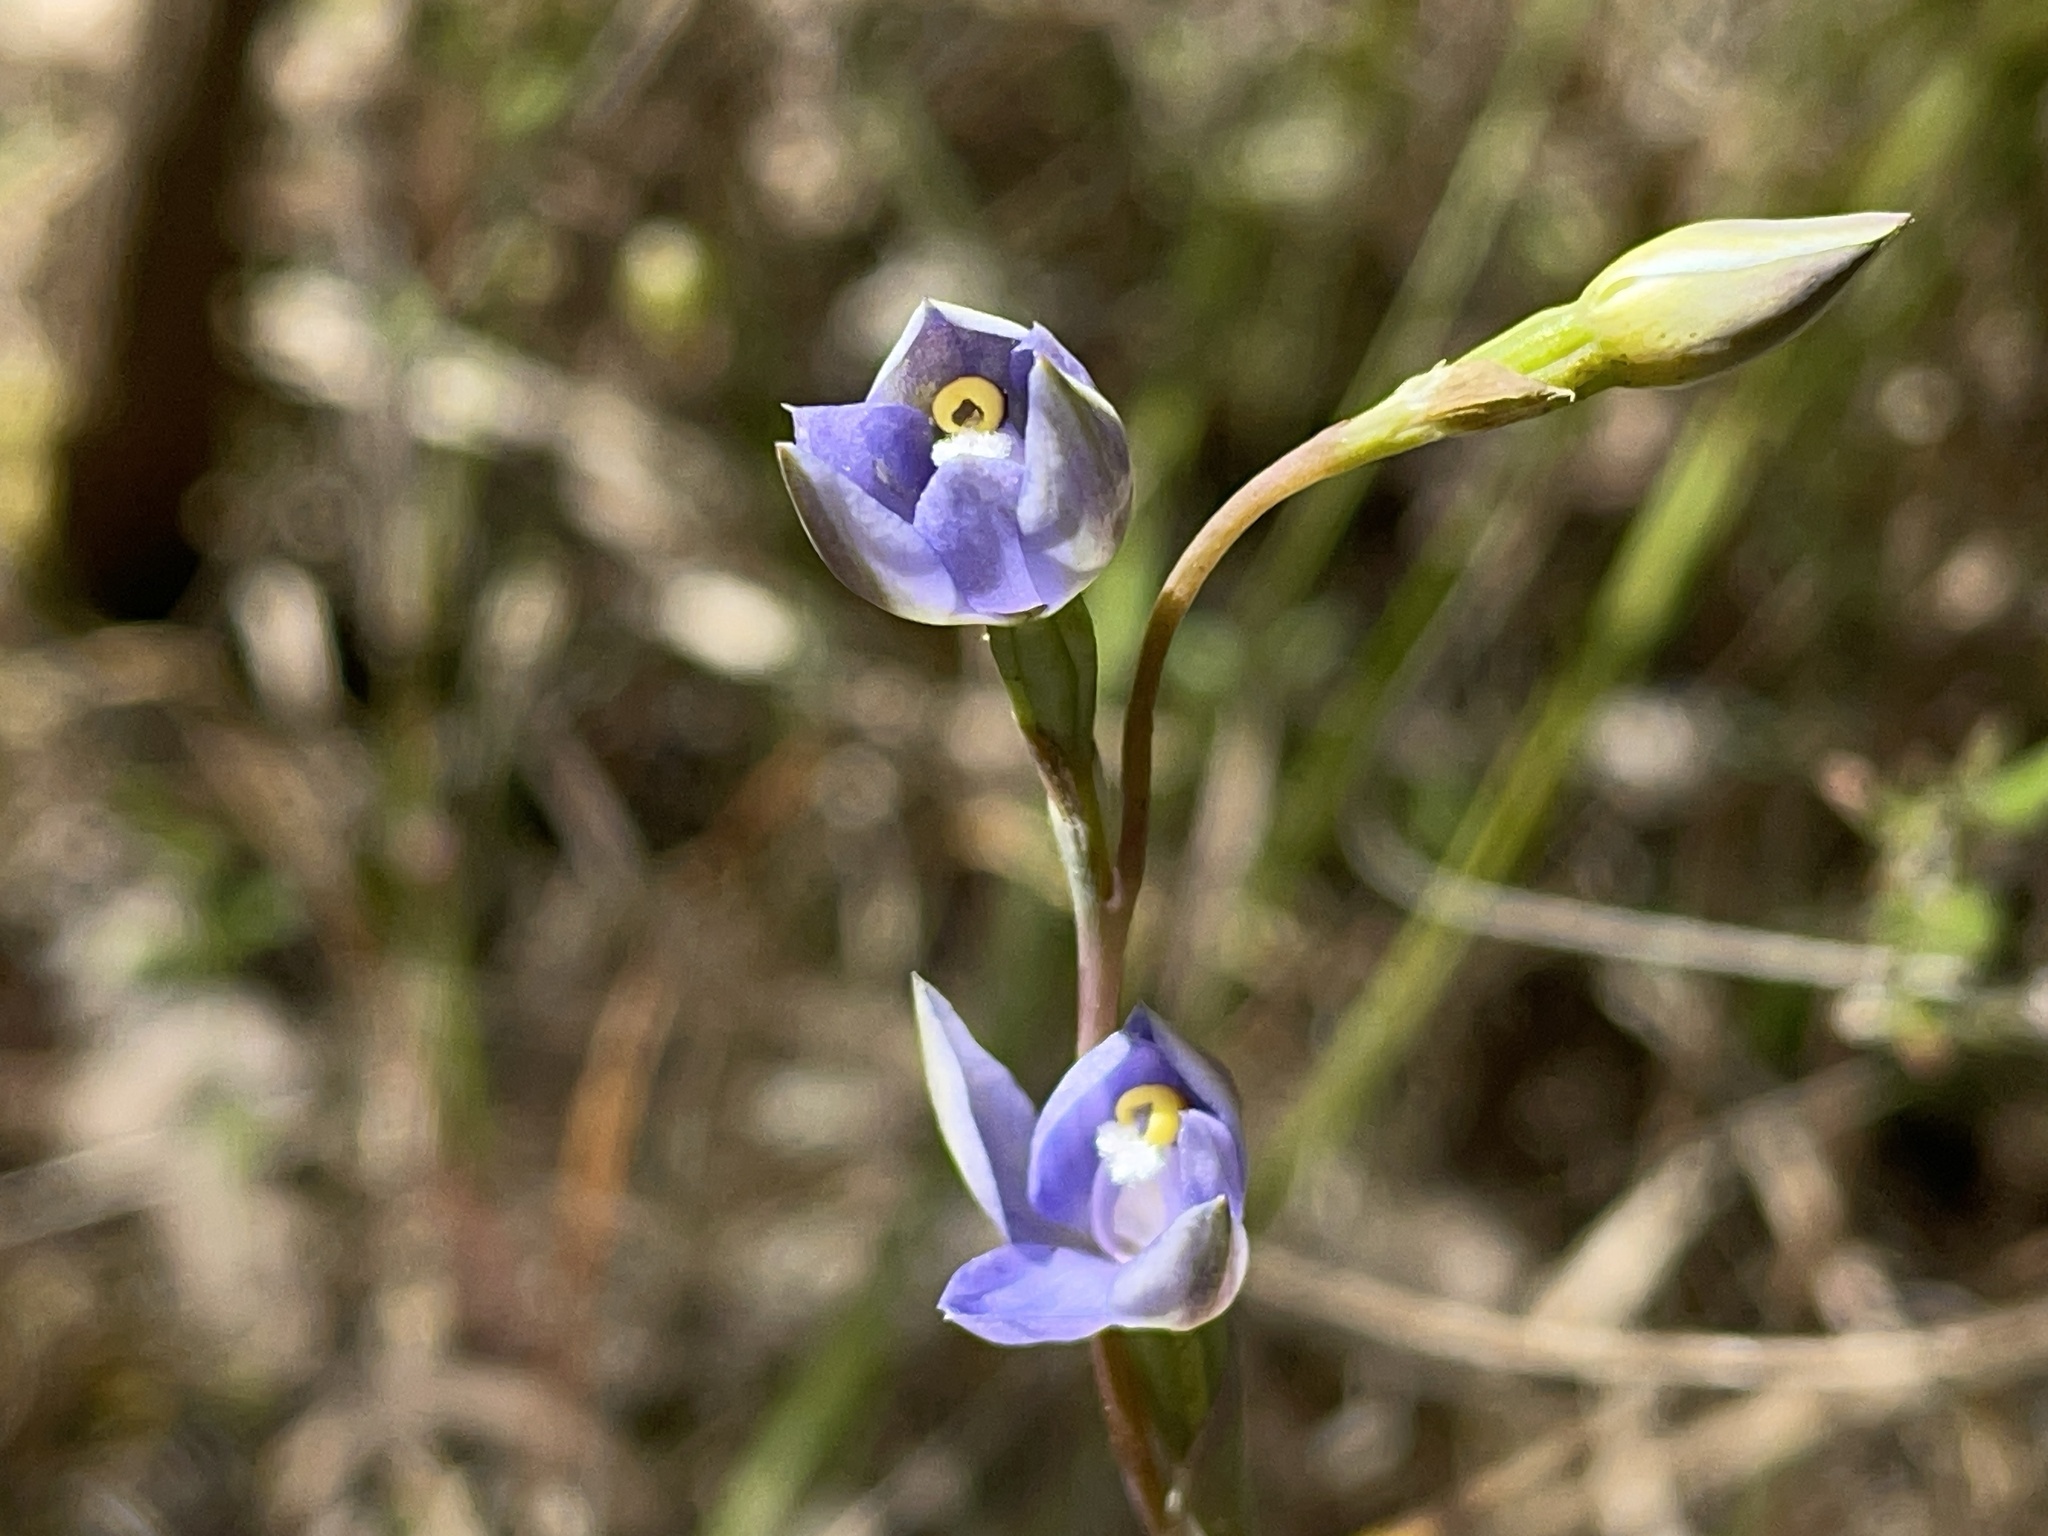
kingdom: Plantae
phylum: Tracheophyta
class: Liliopsida
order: Asparagales
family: Orchidaceae
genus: Thelymitra
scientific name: Thelymitra arenaria
